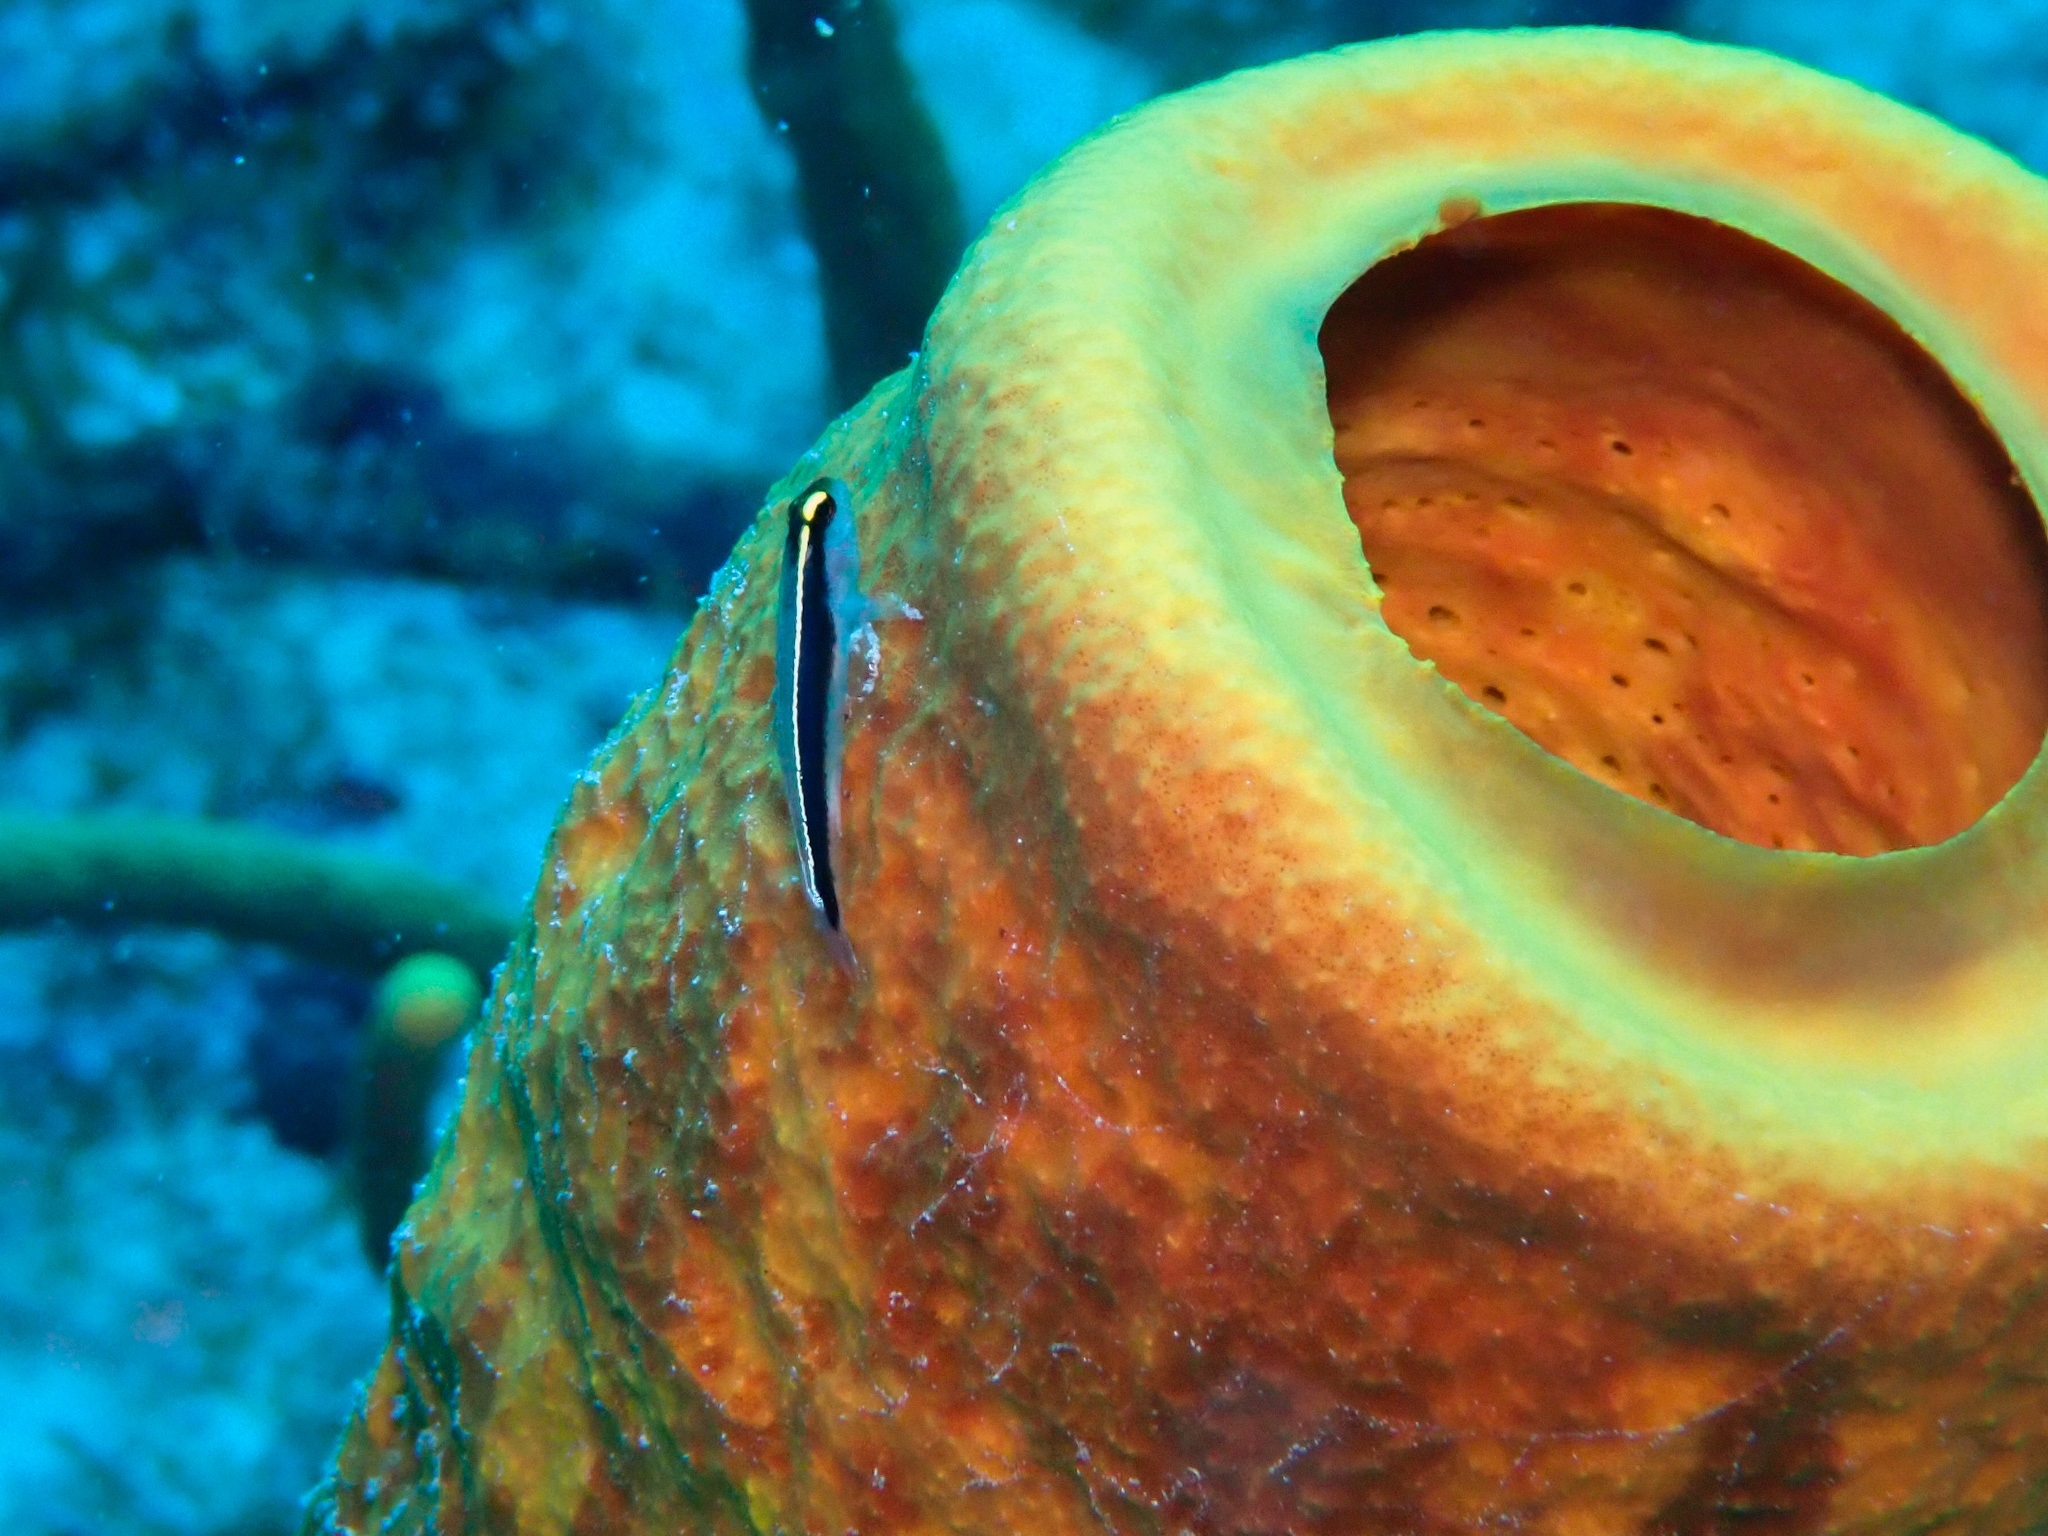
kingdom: Animalia
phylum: Porifera
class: Demospongiae
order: Verongiida
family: Aplysinidae
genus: Aplysina
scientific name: Aplysina fistularis
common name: Candle sponge
